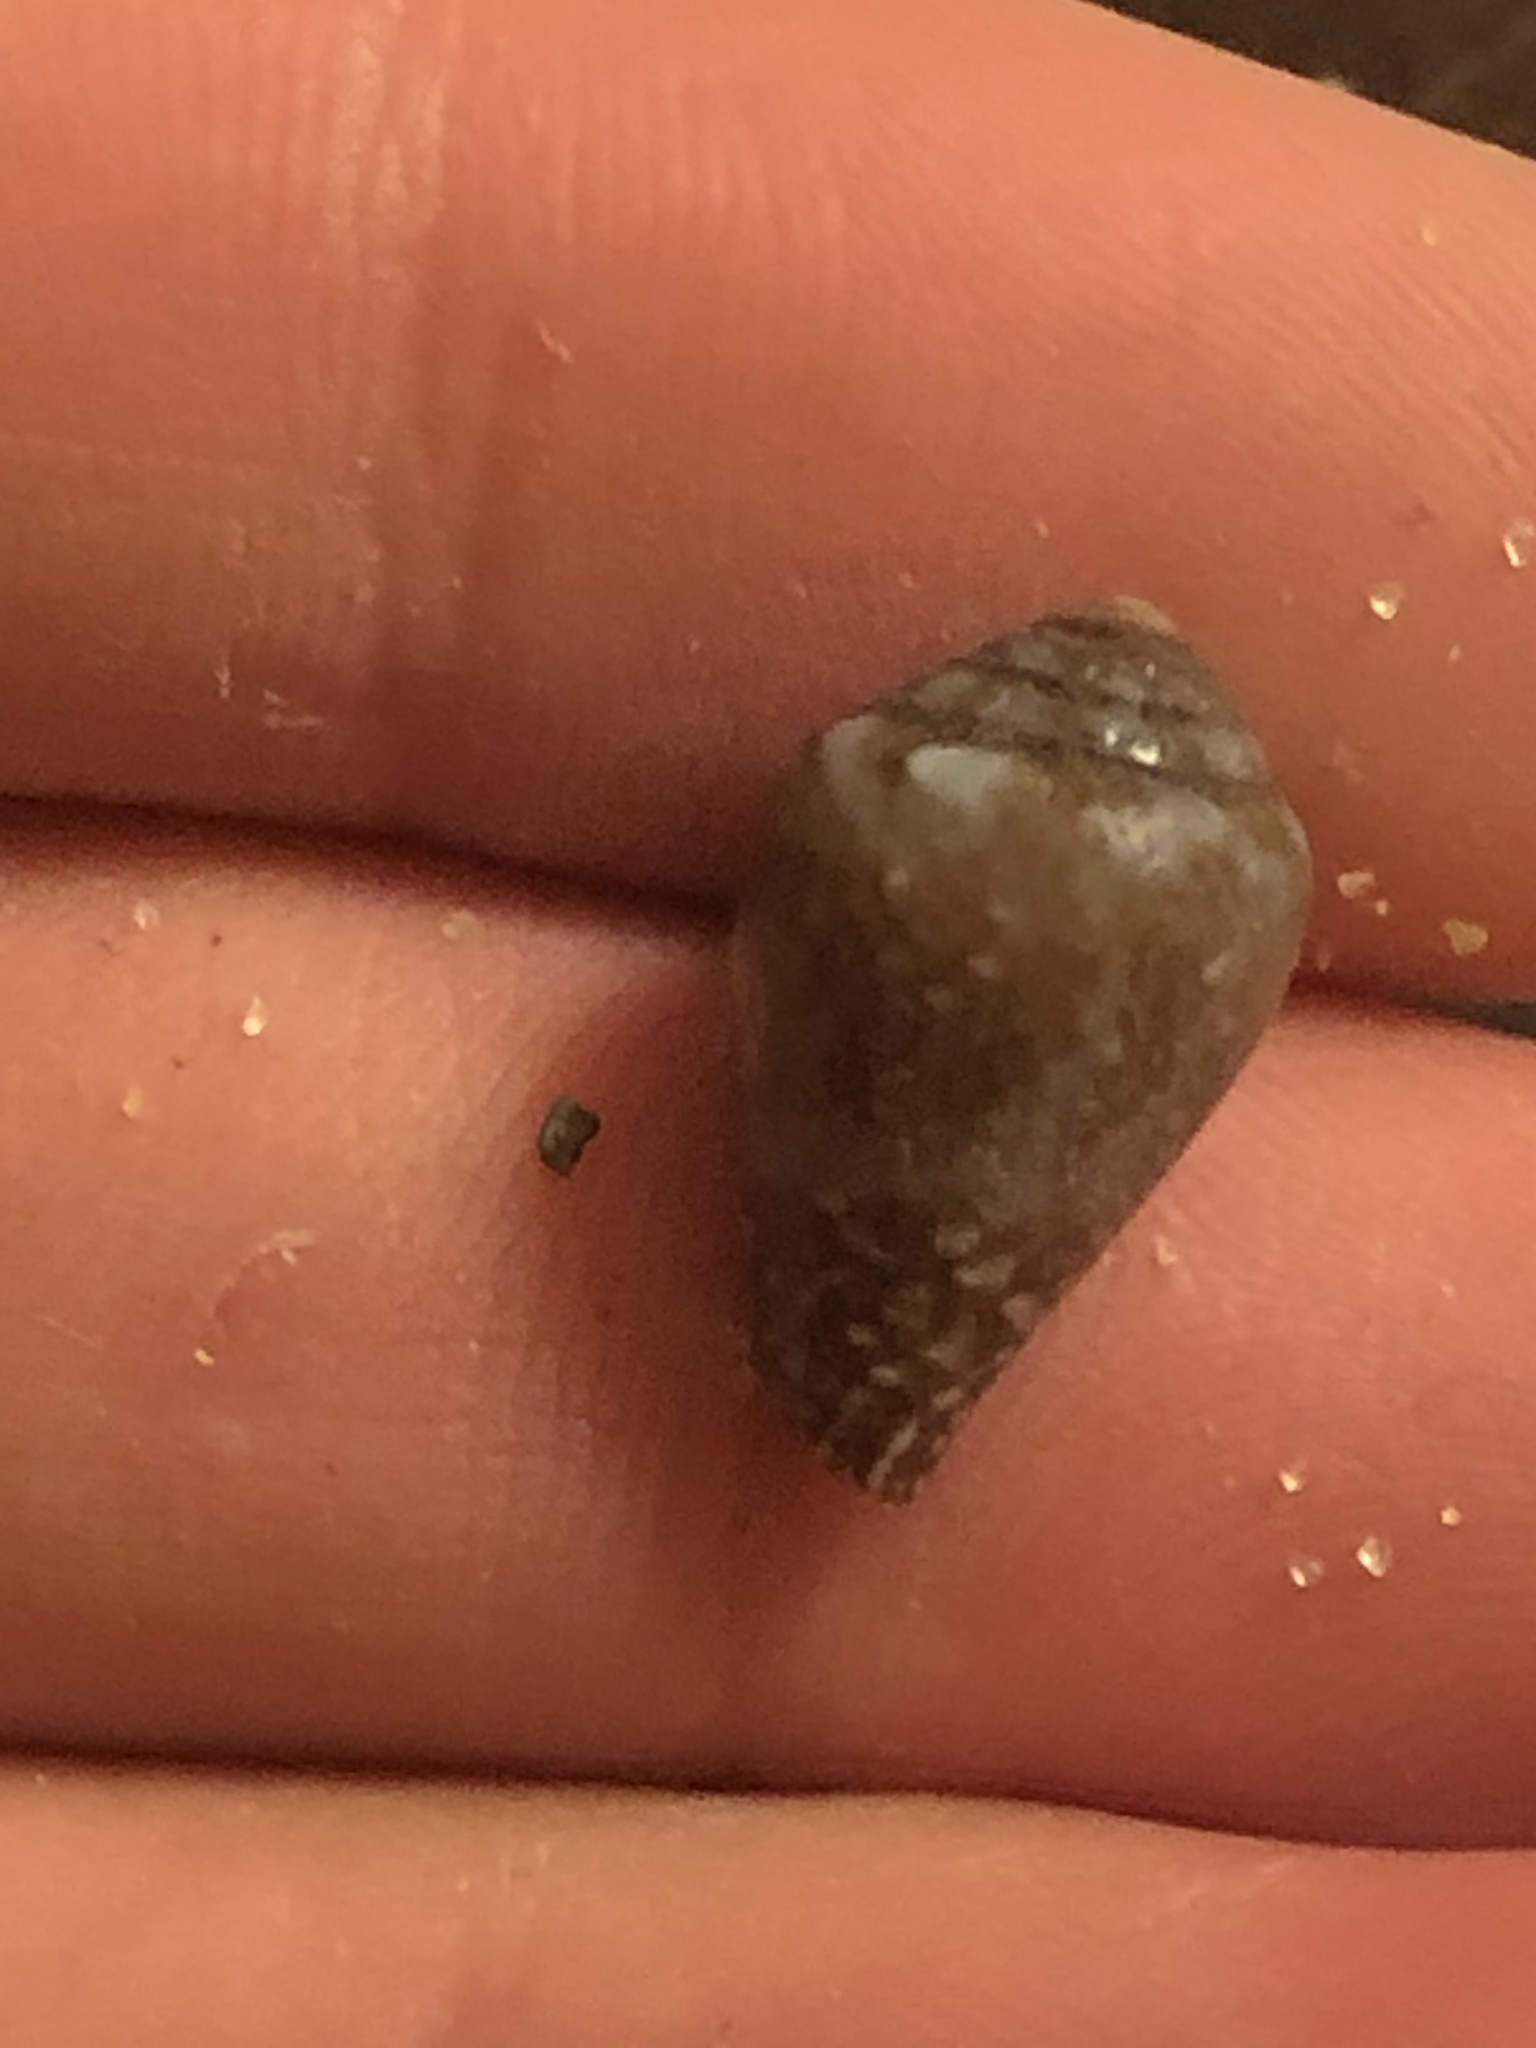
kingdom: Animalia
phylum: Mollusca
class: Gastropoda
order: Neogastropoda
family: Conidae
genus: Californiconus
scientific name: Californiconus californicus
